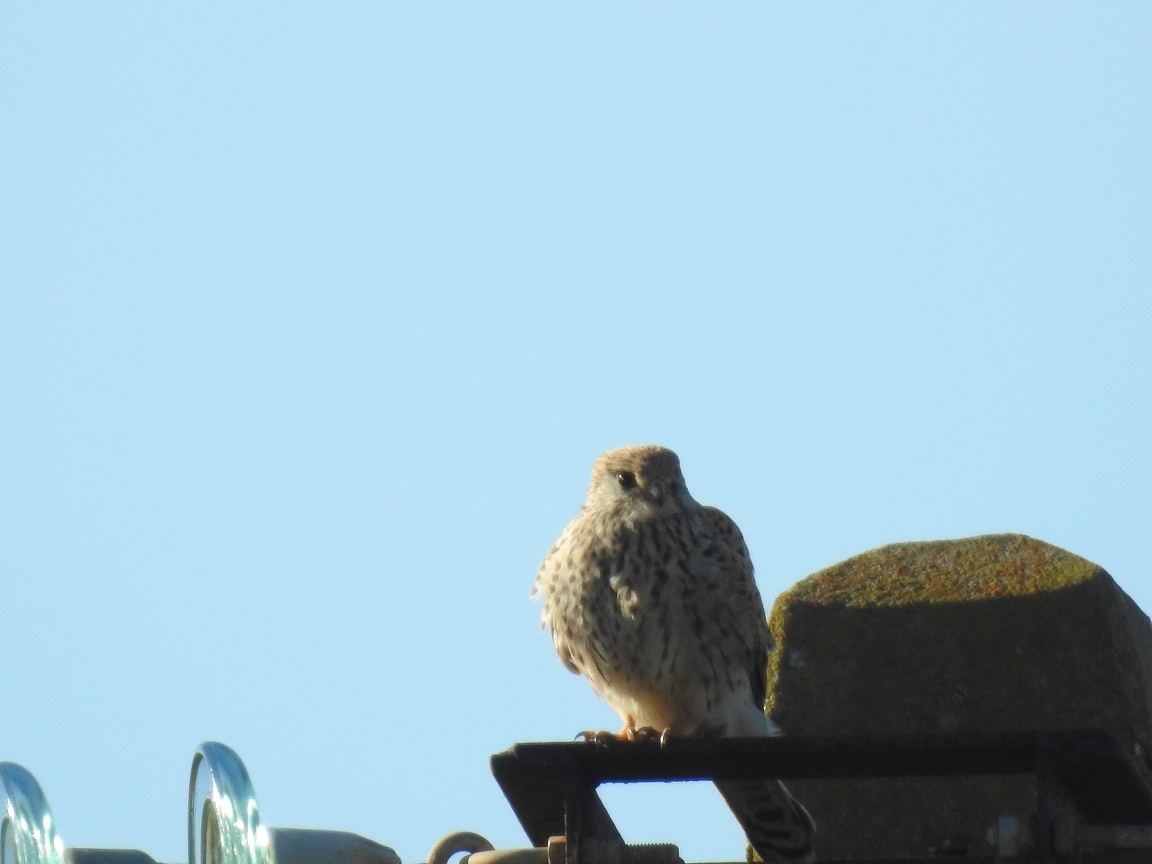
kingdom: Animalia
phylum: Chordata
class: Aves
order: Falconiformes
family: Falconidae
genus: Falco
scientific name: Falco tinnunculus
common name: Common kestrel
